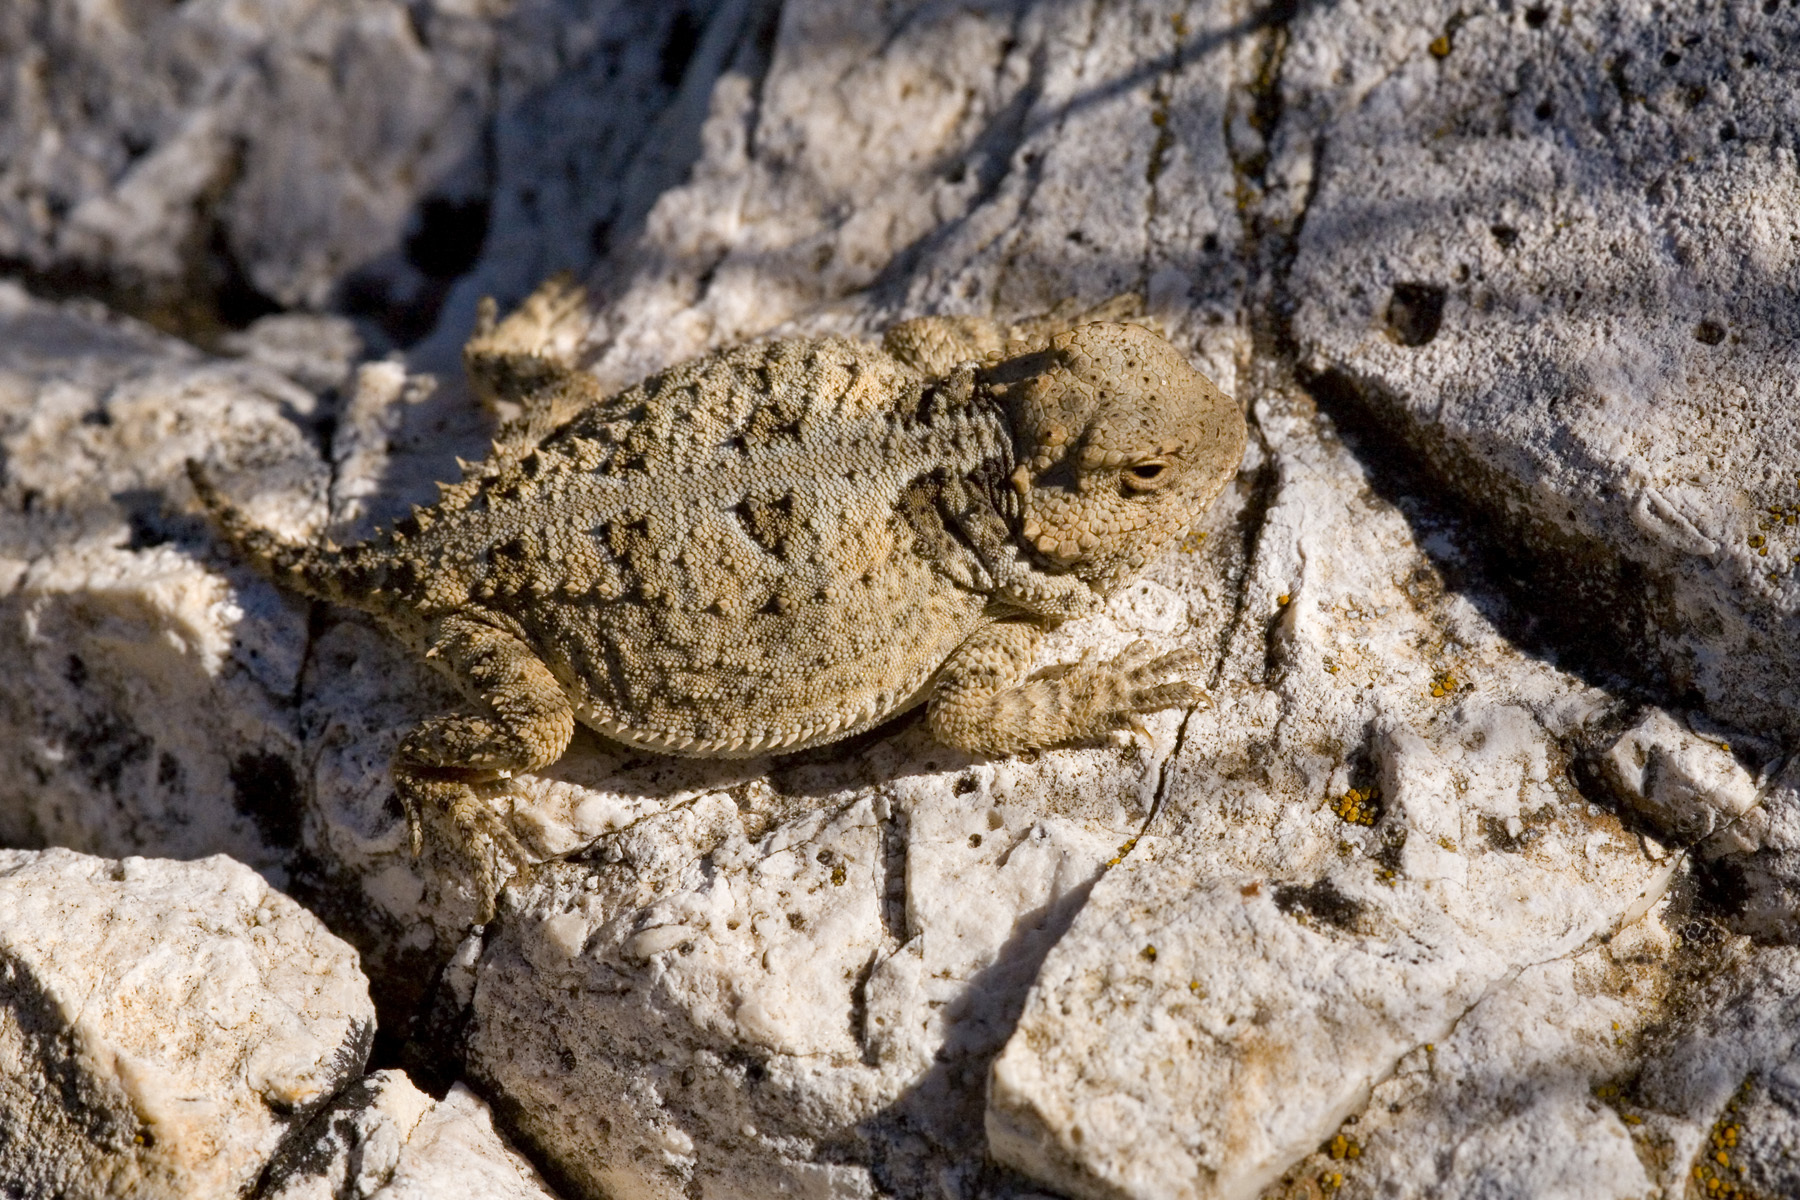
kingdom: Animalia
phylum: Chordata
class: Squamata
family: Phrynosomatidae
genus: Phrynosoma
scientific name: Phrynosoma hernandesi
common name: Greater short-horned lizard
